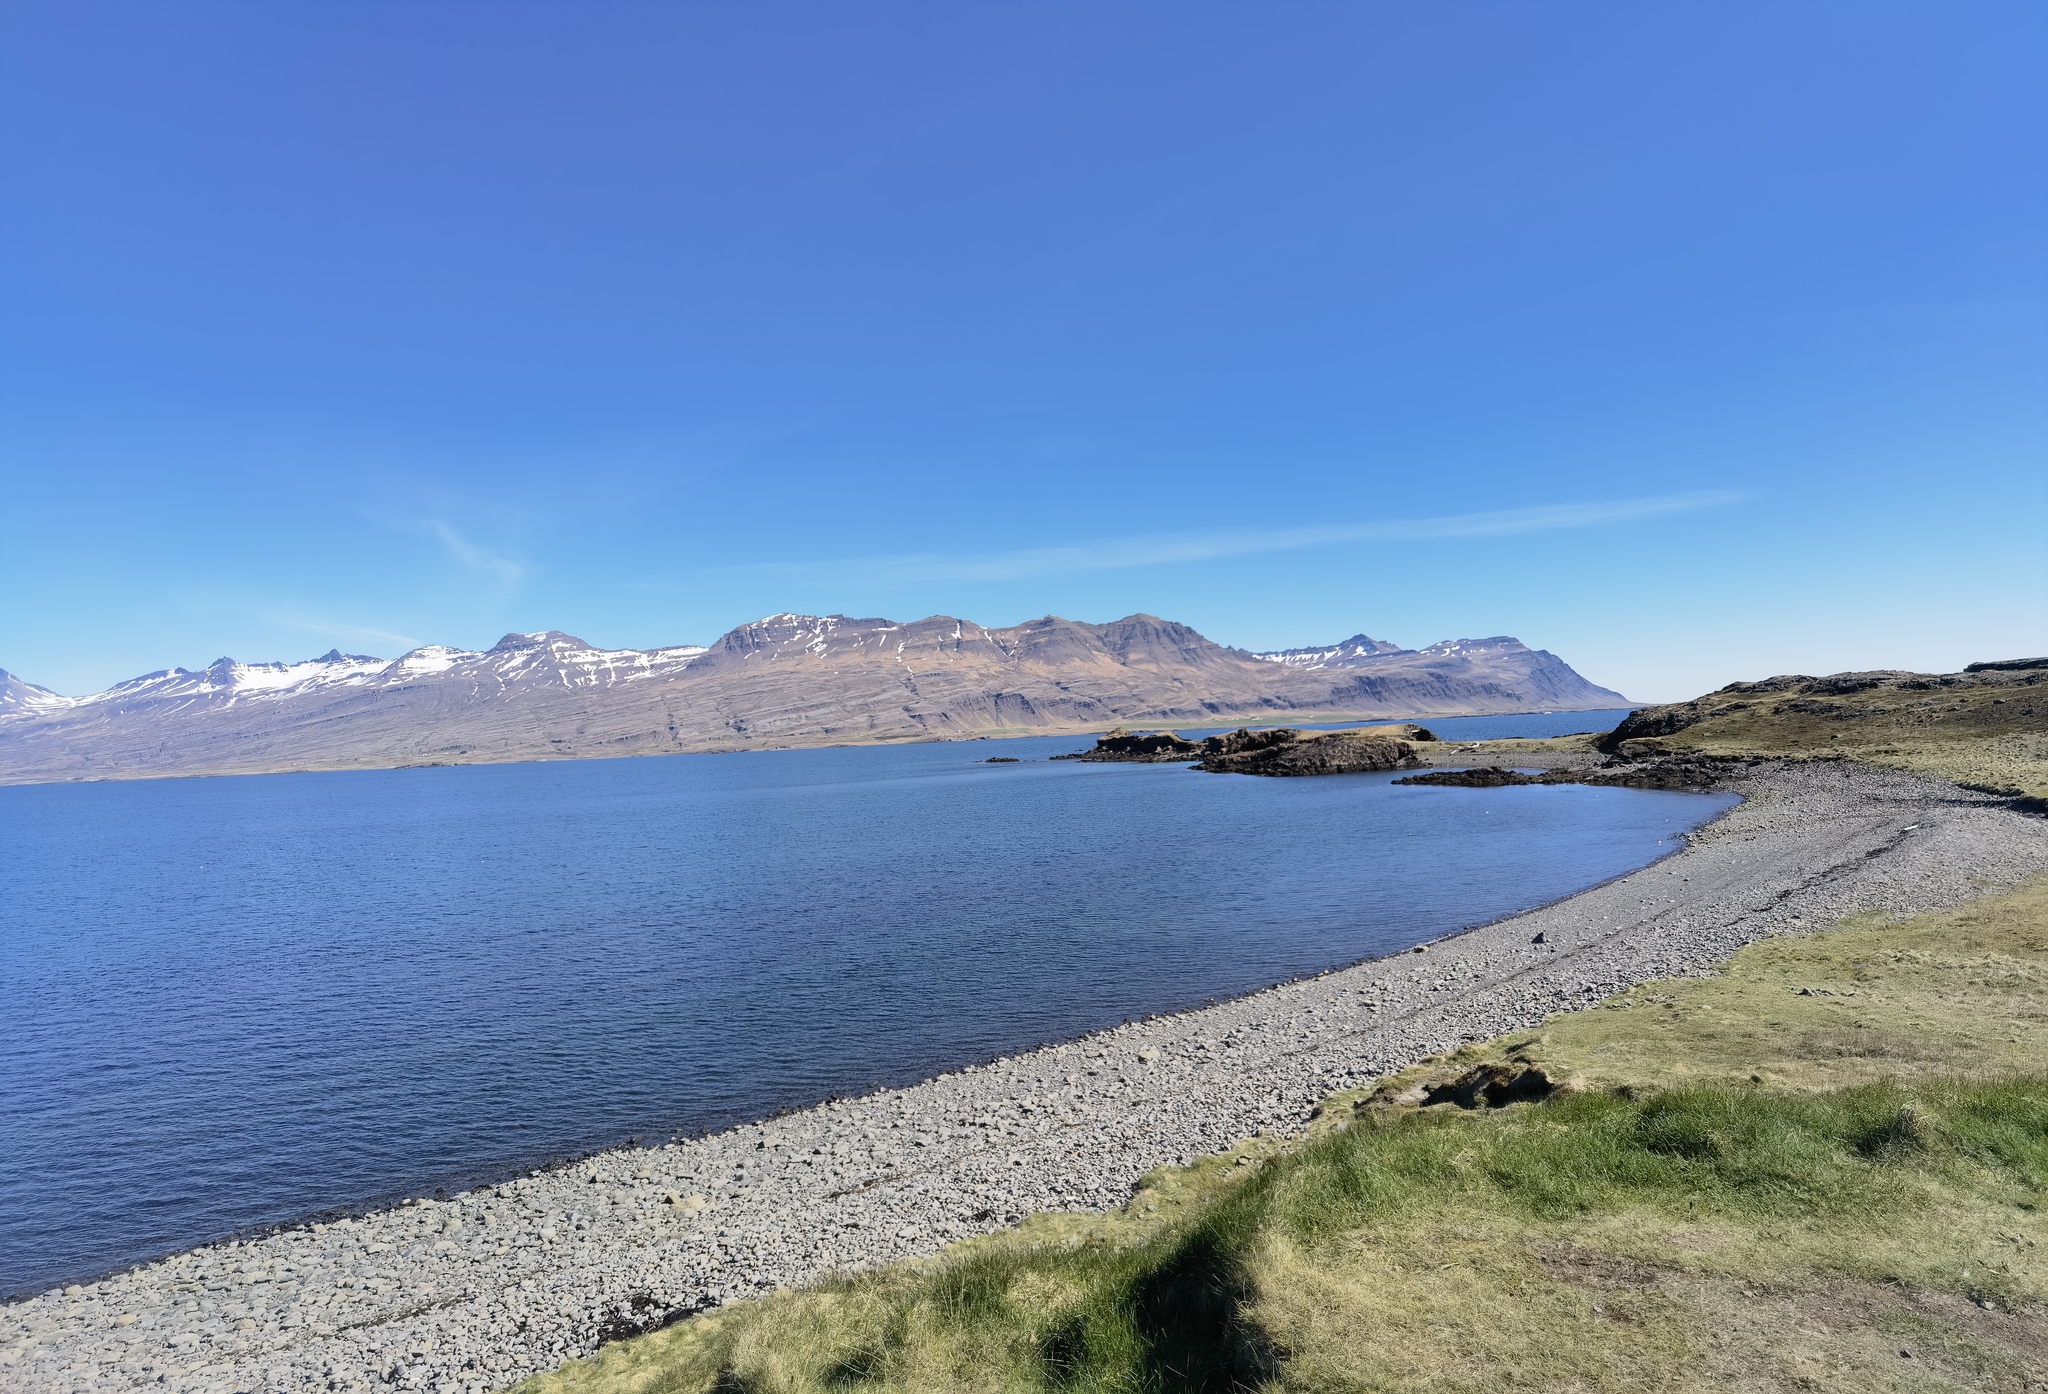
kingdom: Animalia
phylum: Chordata
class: Aves
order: Anseriformes
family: Anatidae
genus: Somateria
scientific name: Somateria mollissima
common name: Common eider
